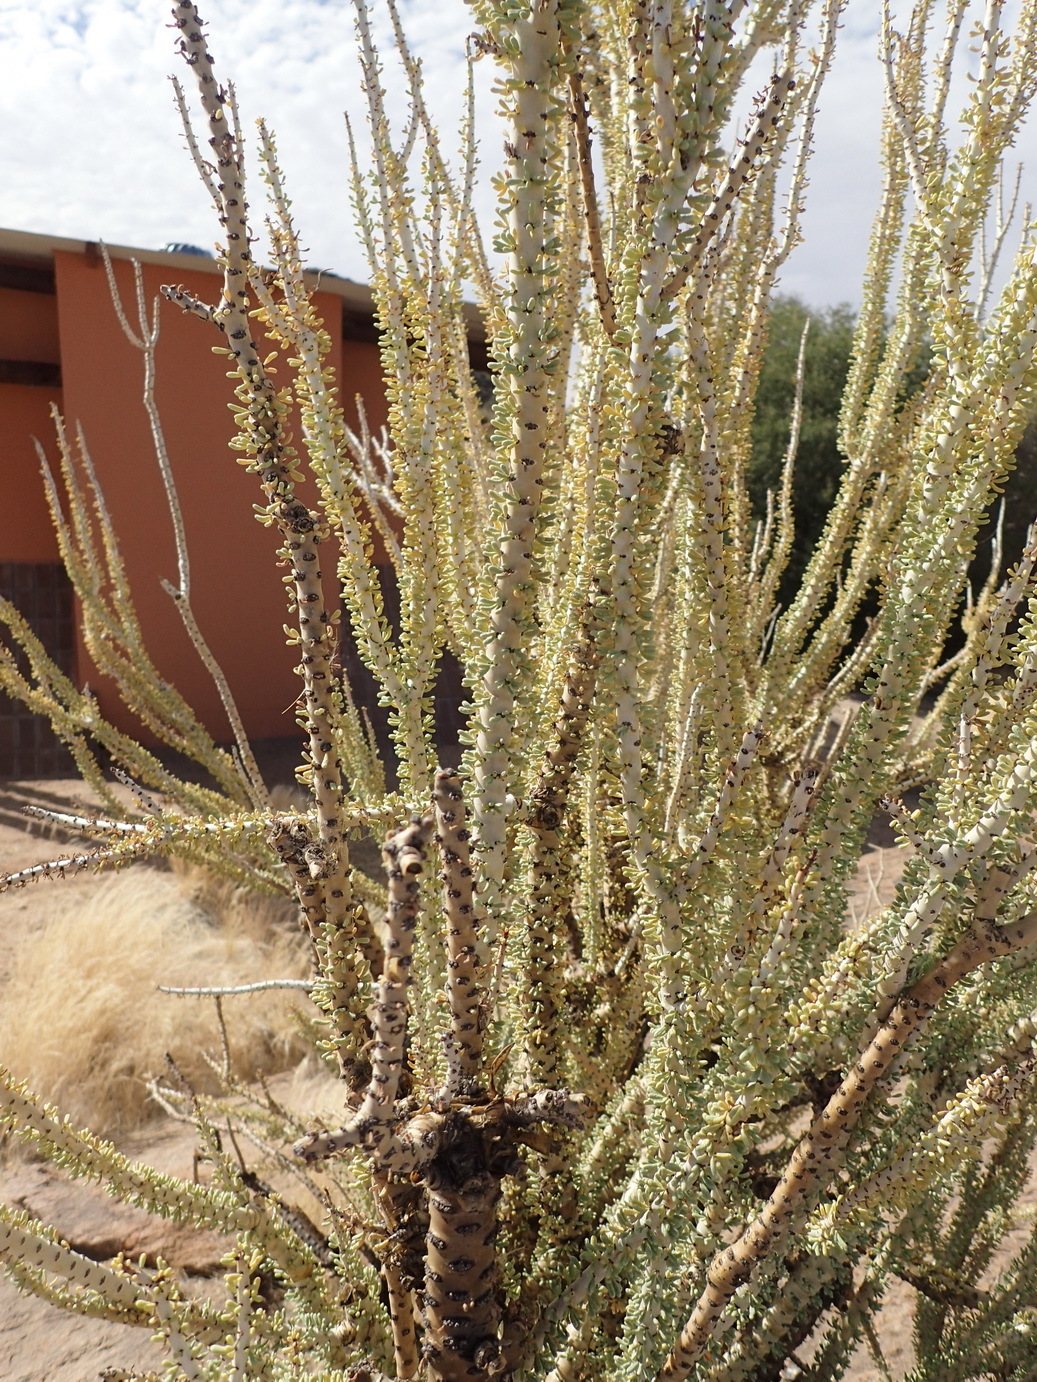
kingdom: Plantae
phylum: Tracheophyta
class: Magnoliopsida
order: Caryophyllales
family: Didiereaceae
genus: Portulacaria
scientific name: Portulacaria namaquensis
